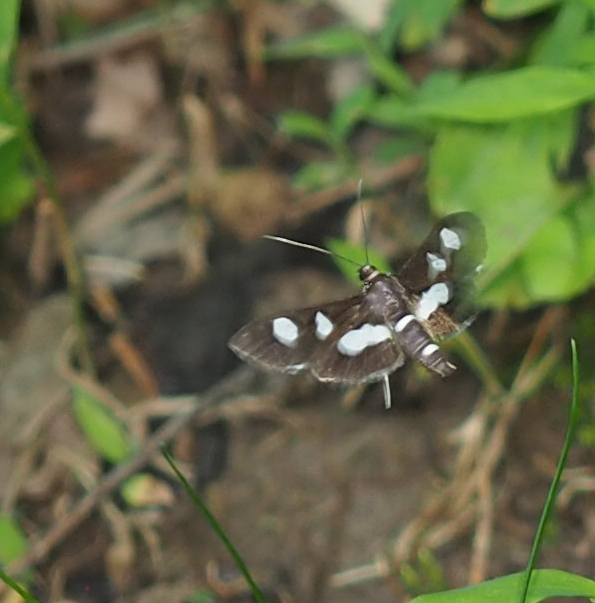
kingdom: Animalia
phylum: Arthropoda
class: Insecta
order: Lepidoptera
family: Crambidae
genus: Desmia
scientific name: Desmia
